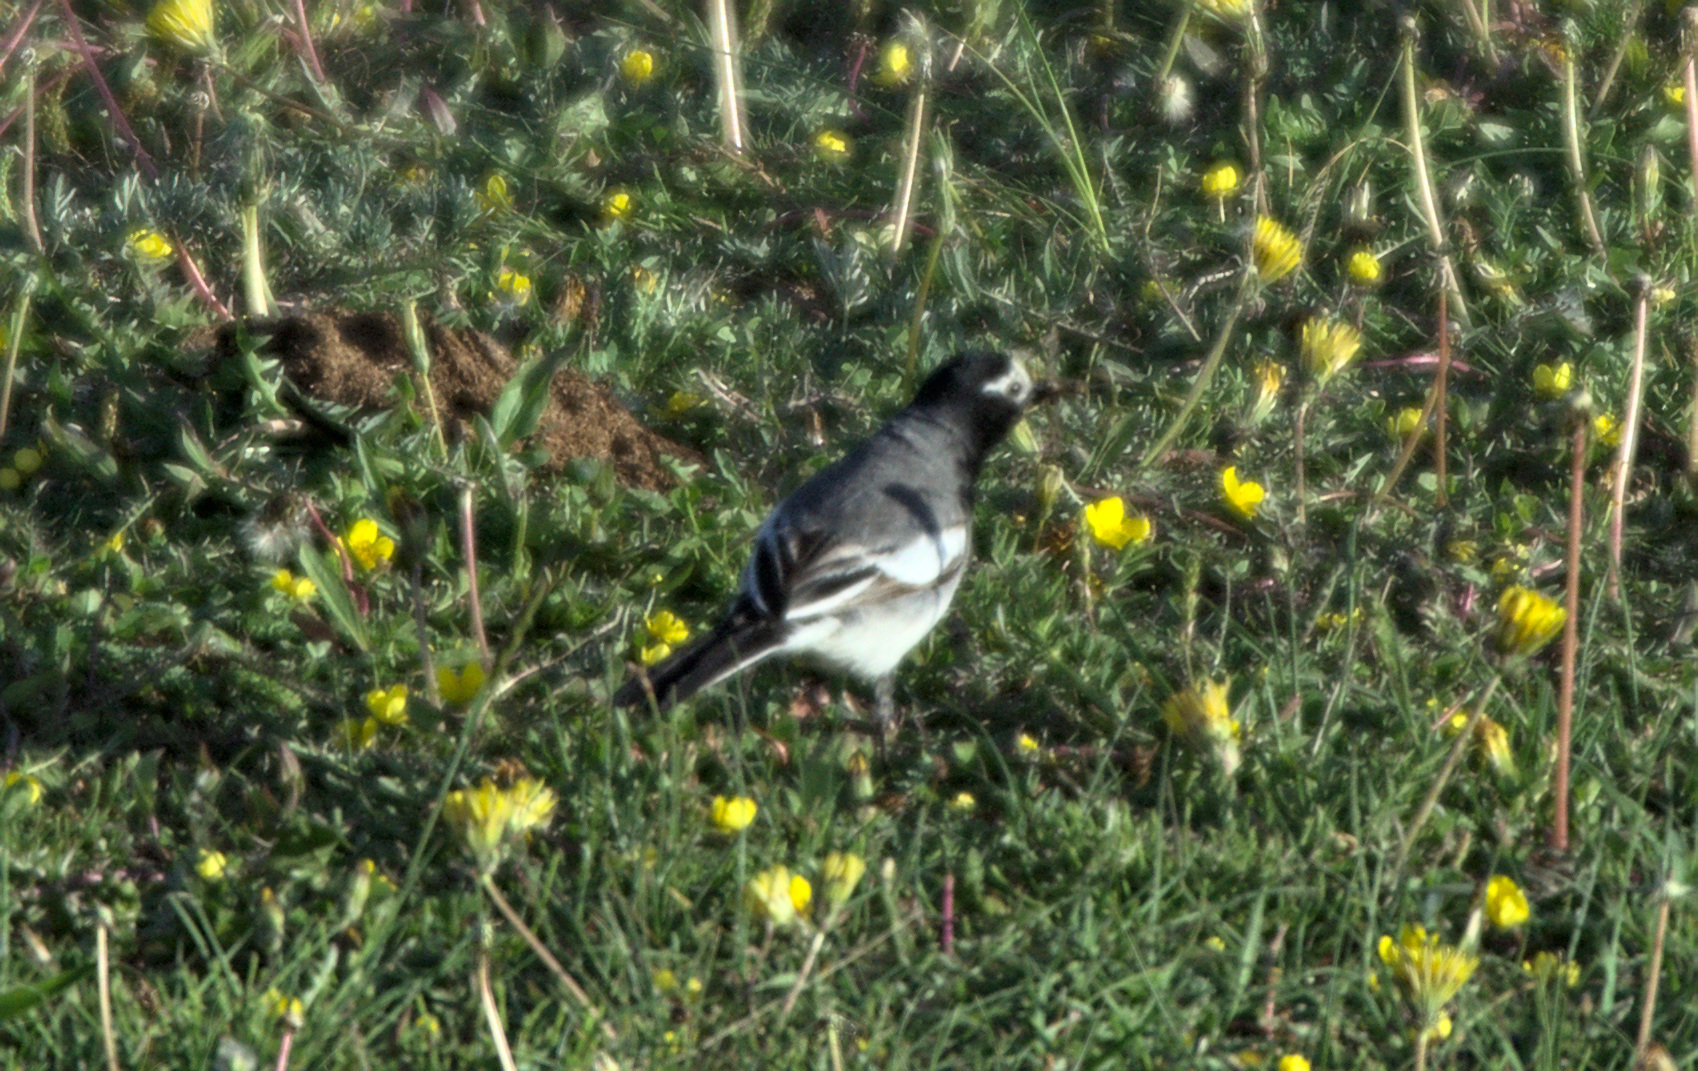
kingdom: Animalia
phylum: Chordata
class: Aves
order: Passeriformes
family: Motacillidae
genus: Motacilla
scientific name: Motacilla alba
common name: White wagtail
